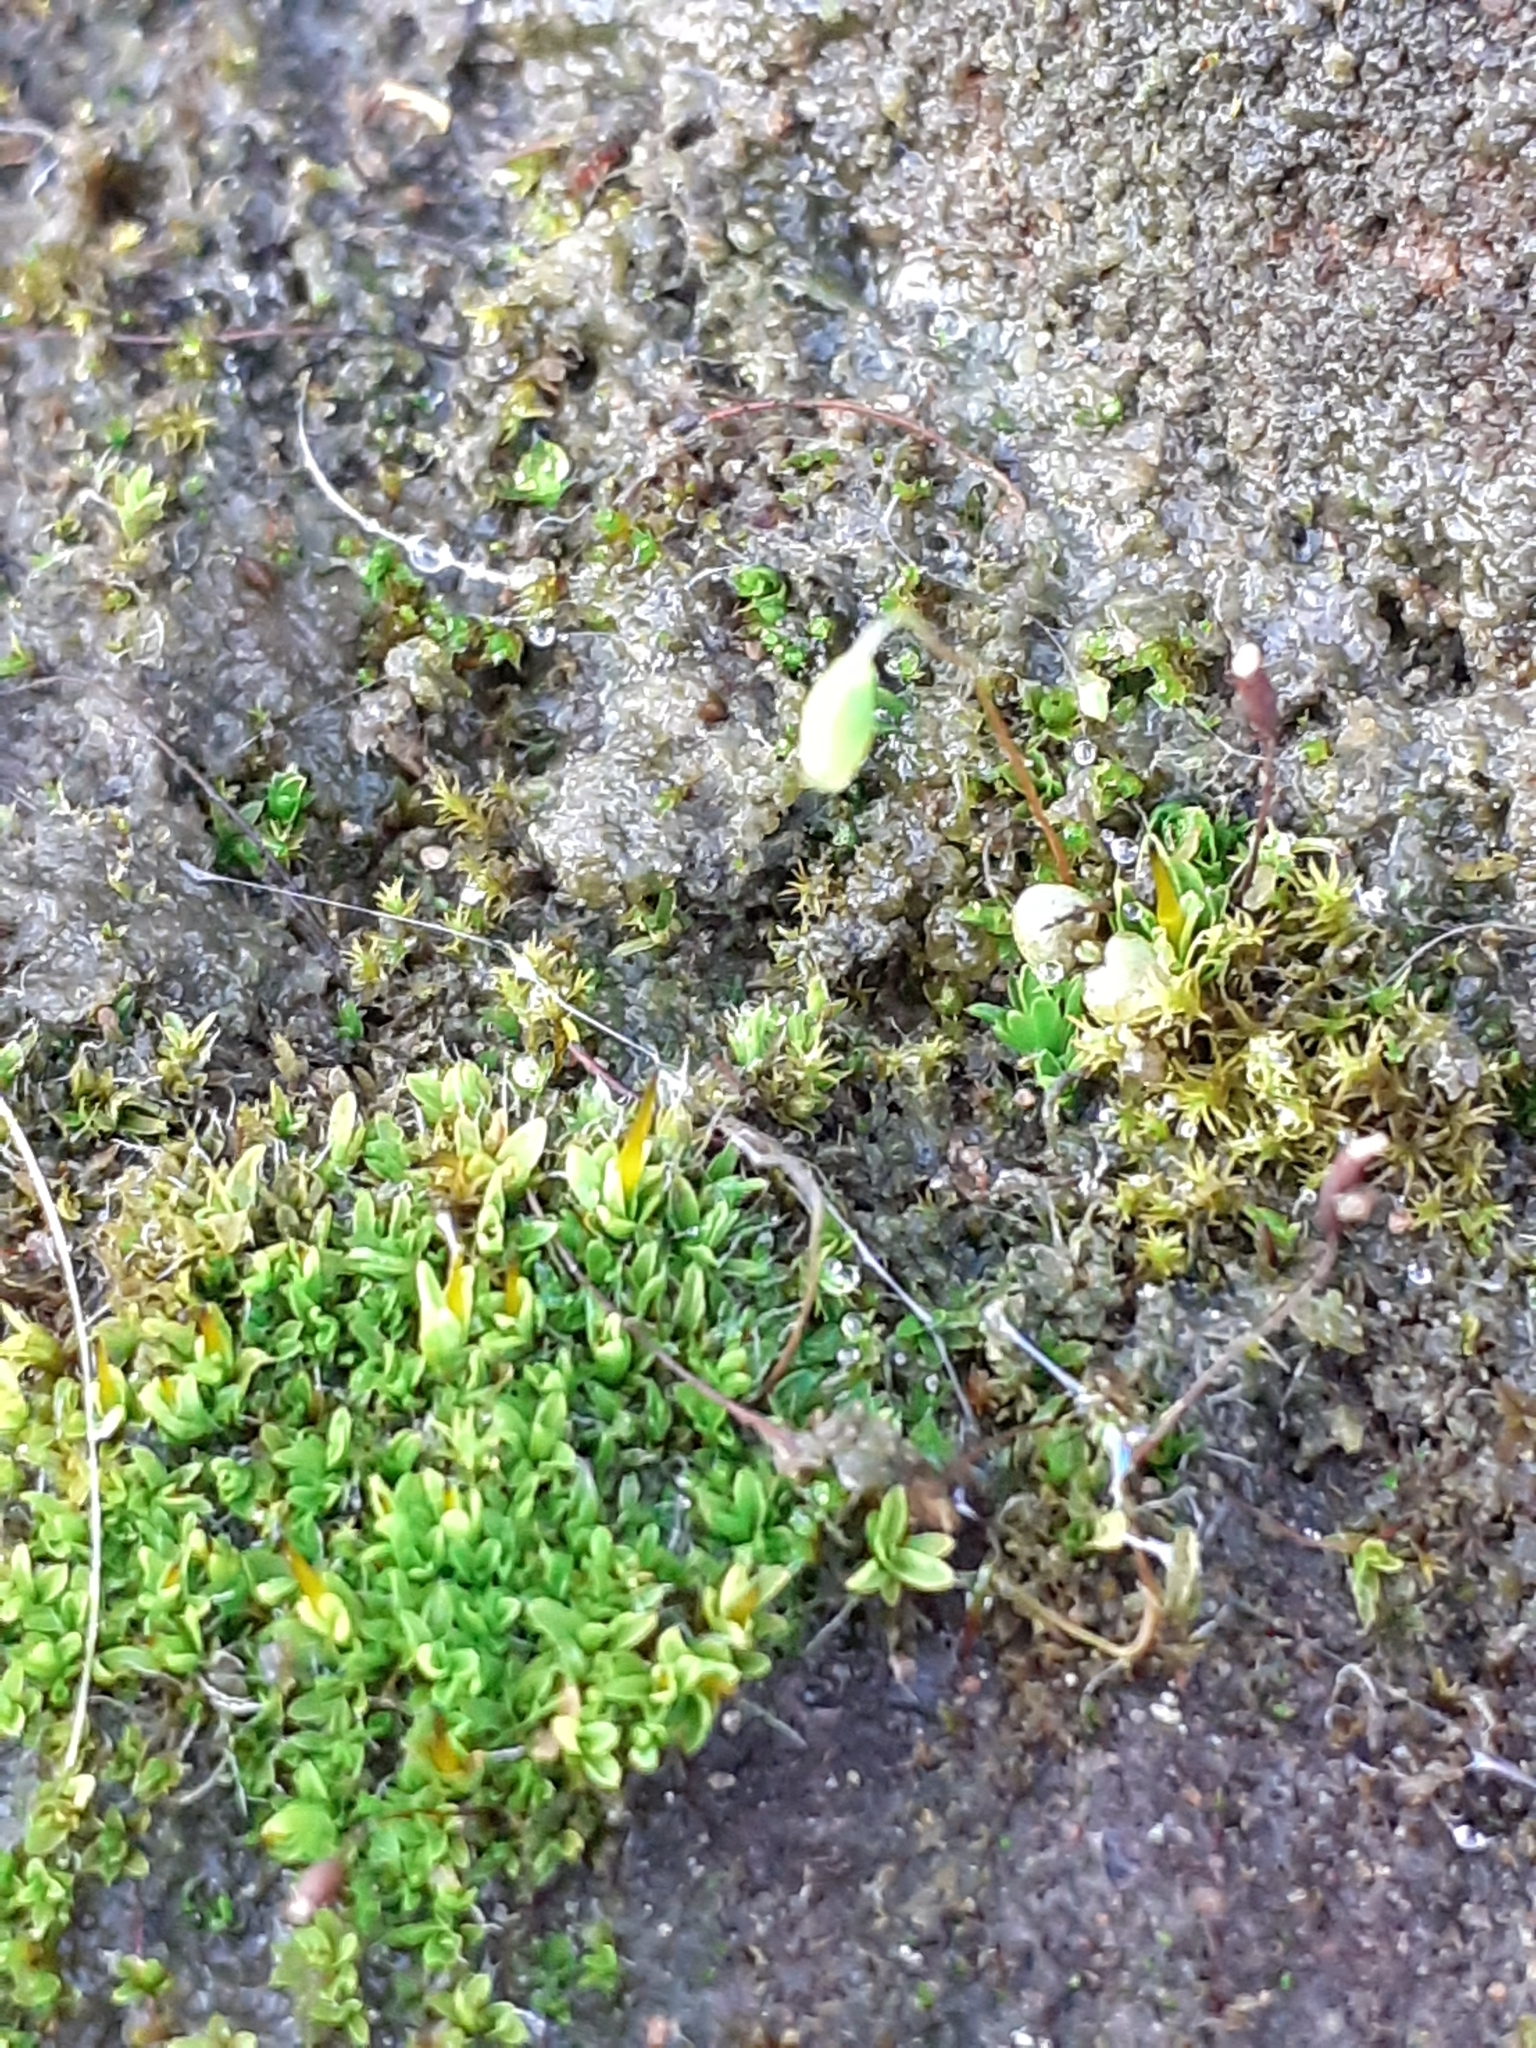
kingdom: Plantae
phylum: Bryophyta
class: Bryopsida
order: Pottiales
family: Pottiaceae
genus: Tortula
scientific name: Tortula muralis
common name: Wall screw-moss
